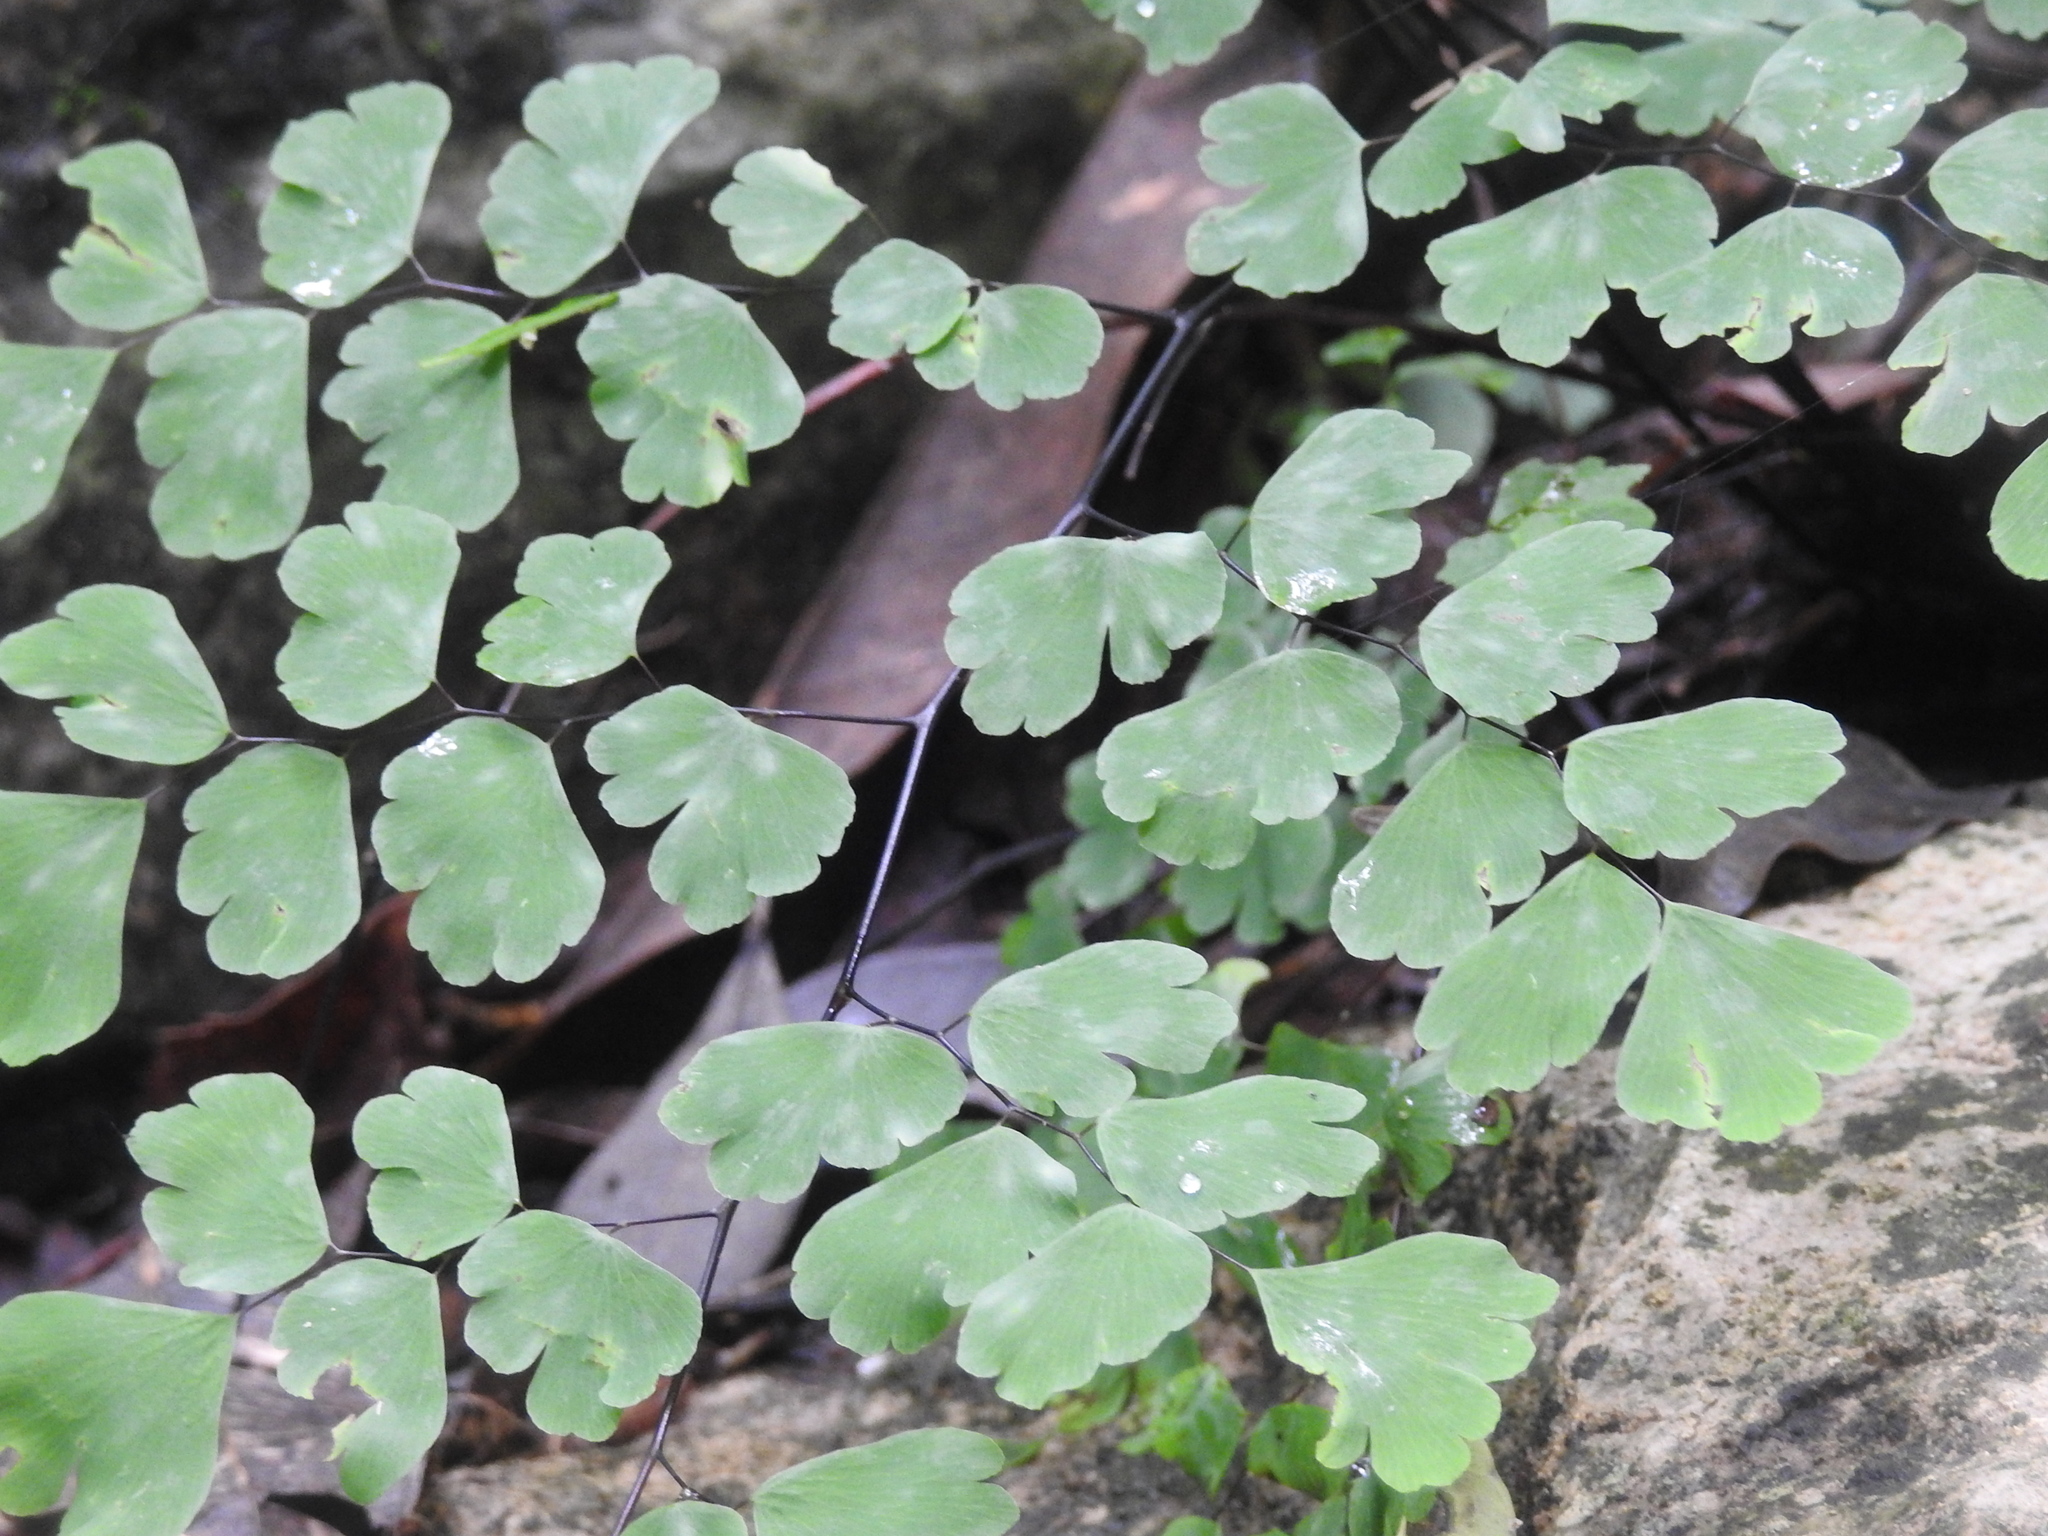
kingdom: Plantae
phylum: Tracheophyta
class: Polypodiopsida
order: Polypodiales
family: Pteridaceae
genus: Adiantum
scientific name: Adiantum braunii
